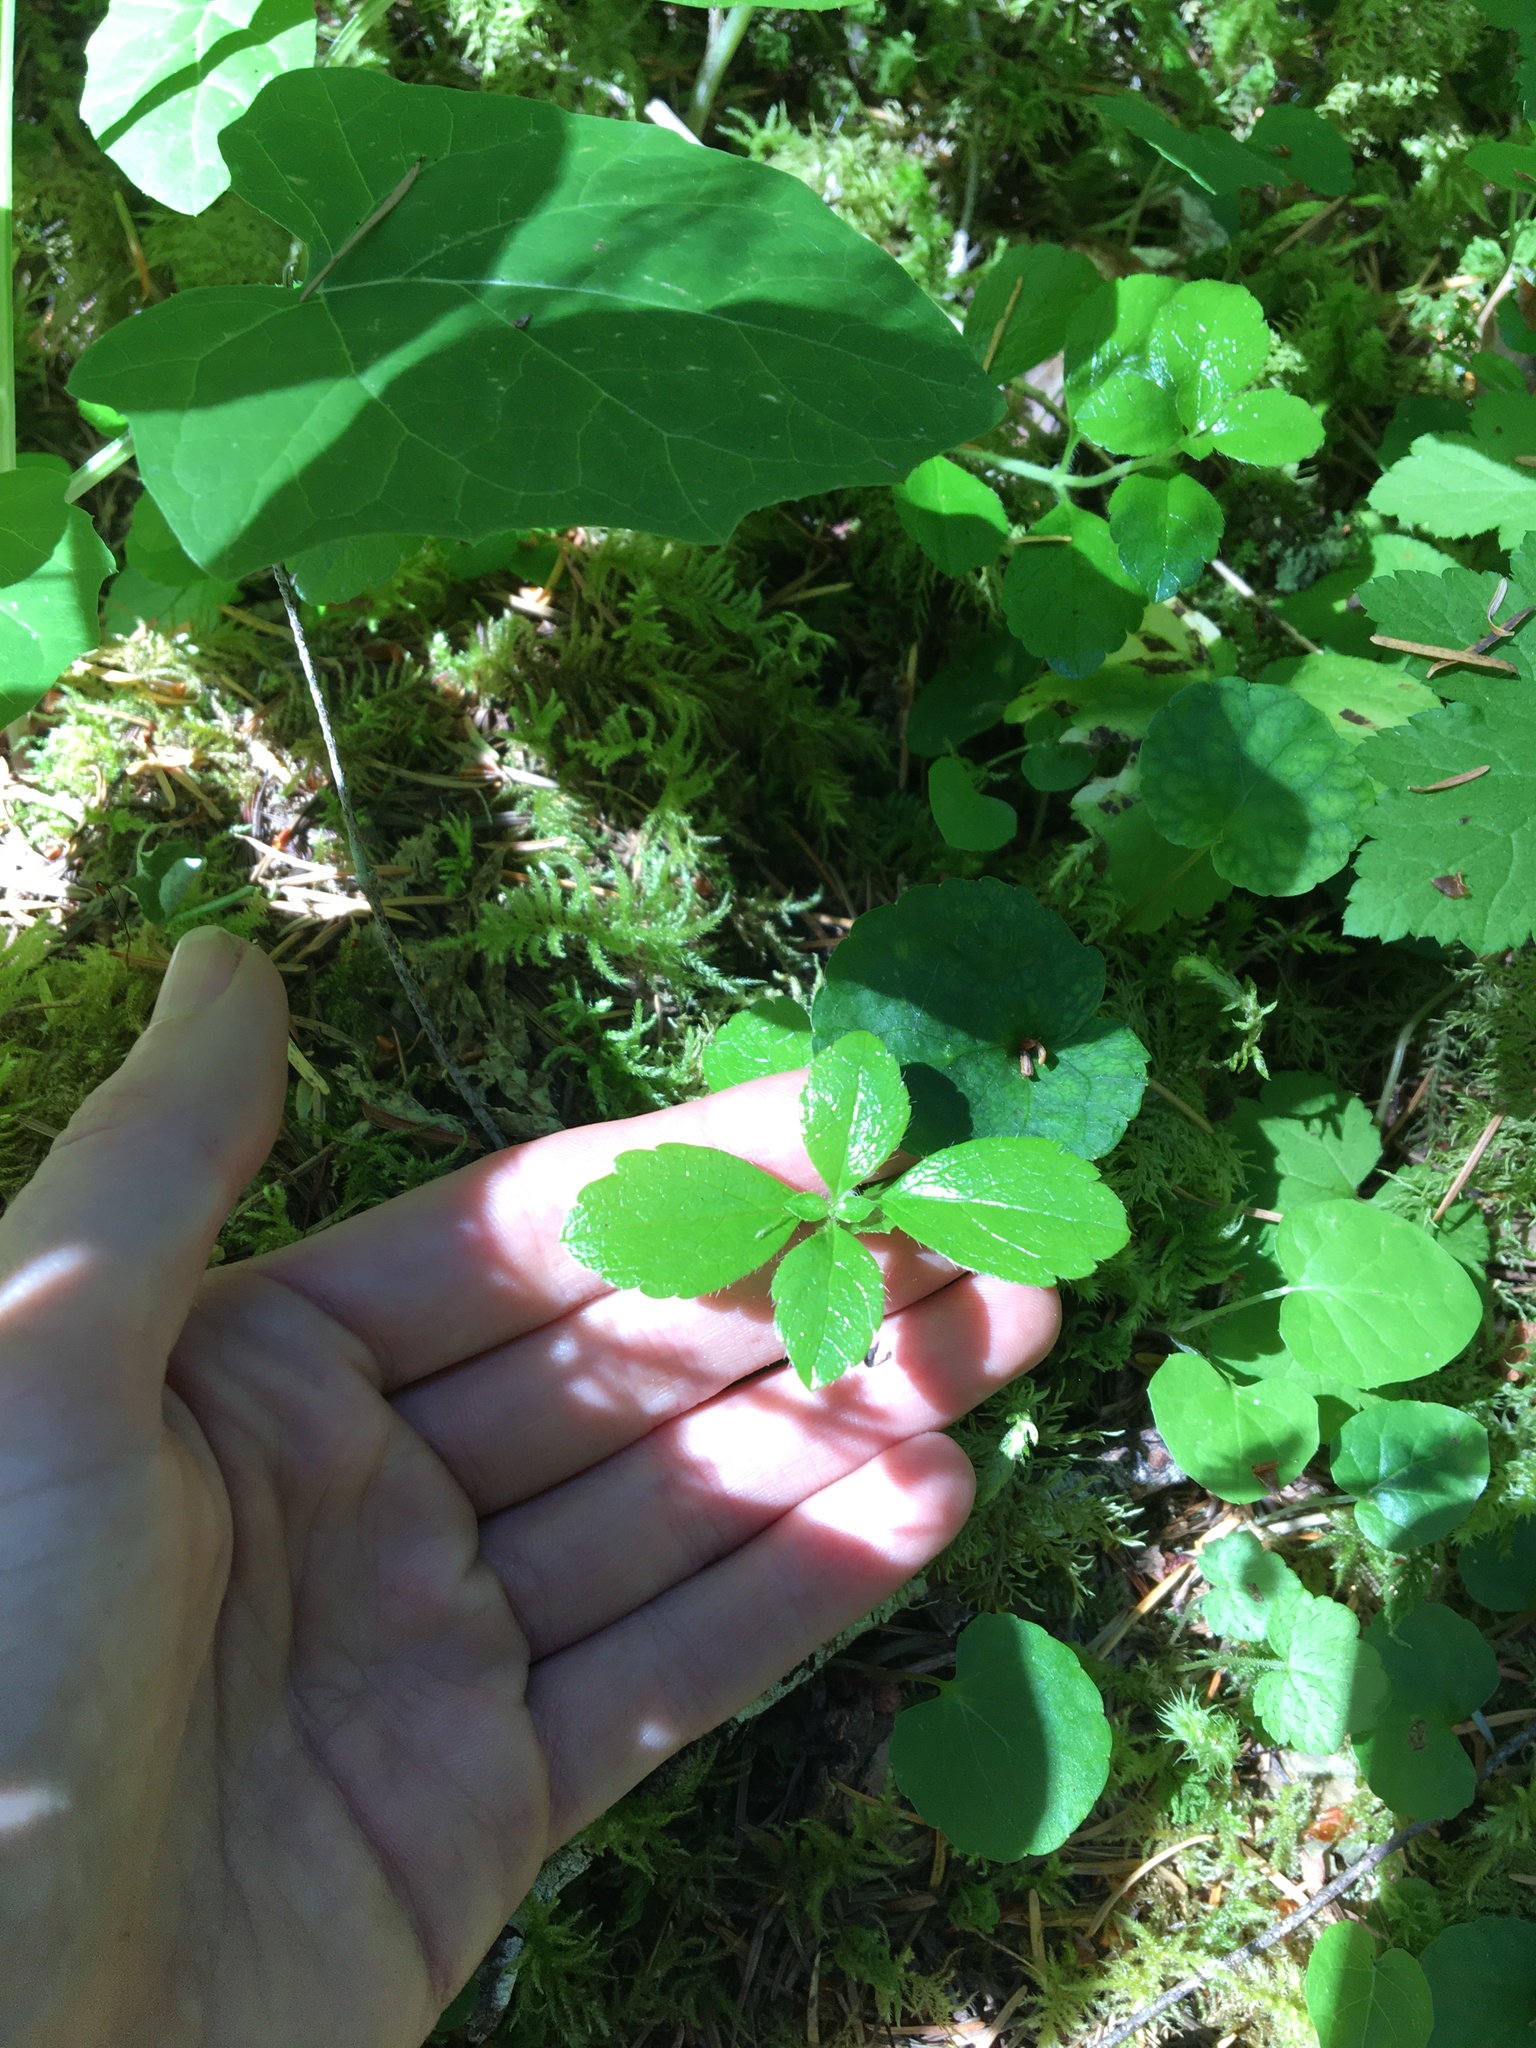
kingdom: Plantae
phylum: Tracheophyta
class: Magnoliopsida
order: Dipsacales
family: Caprifoliaceae
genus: Linnaea
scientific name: Linnaea borealis
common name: Twinflower
